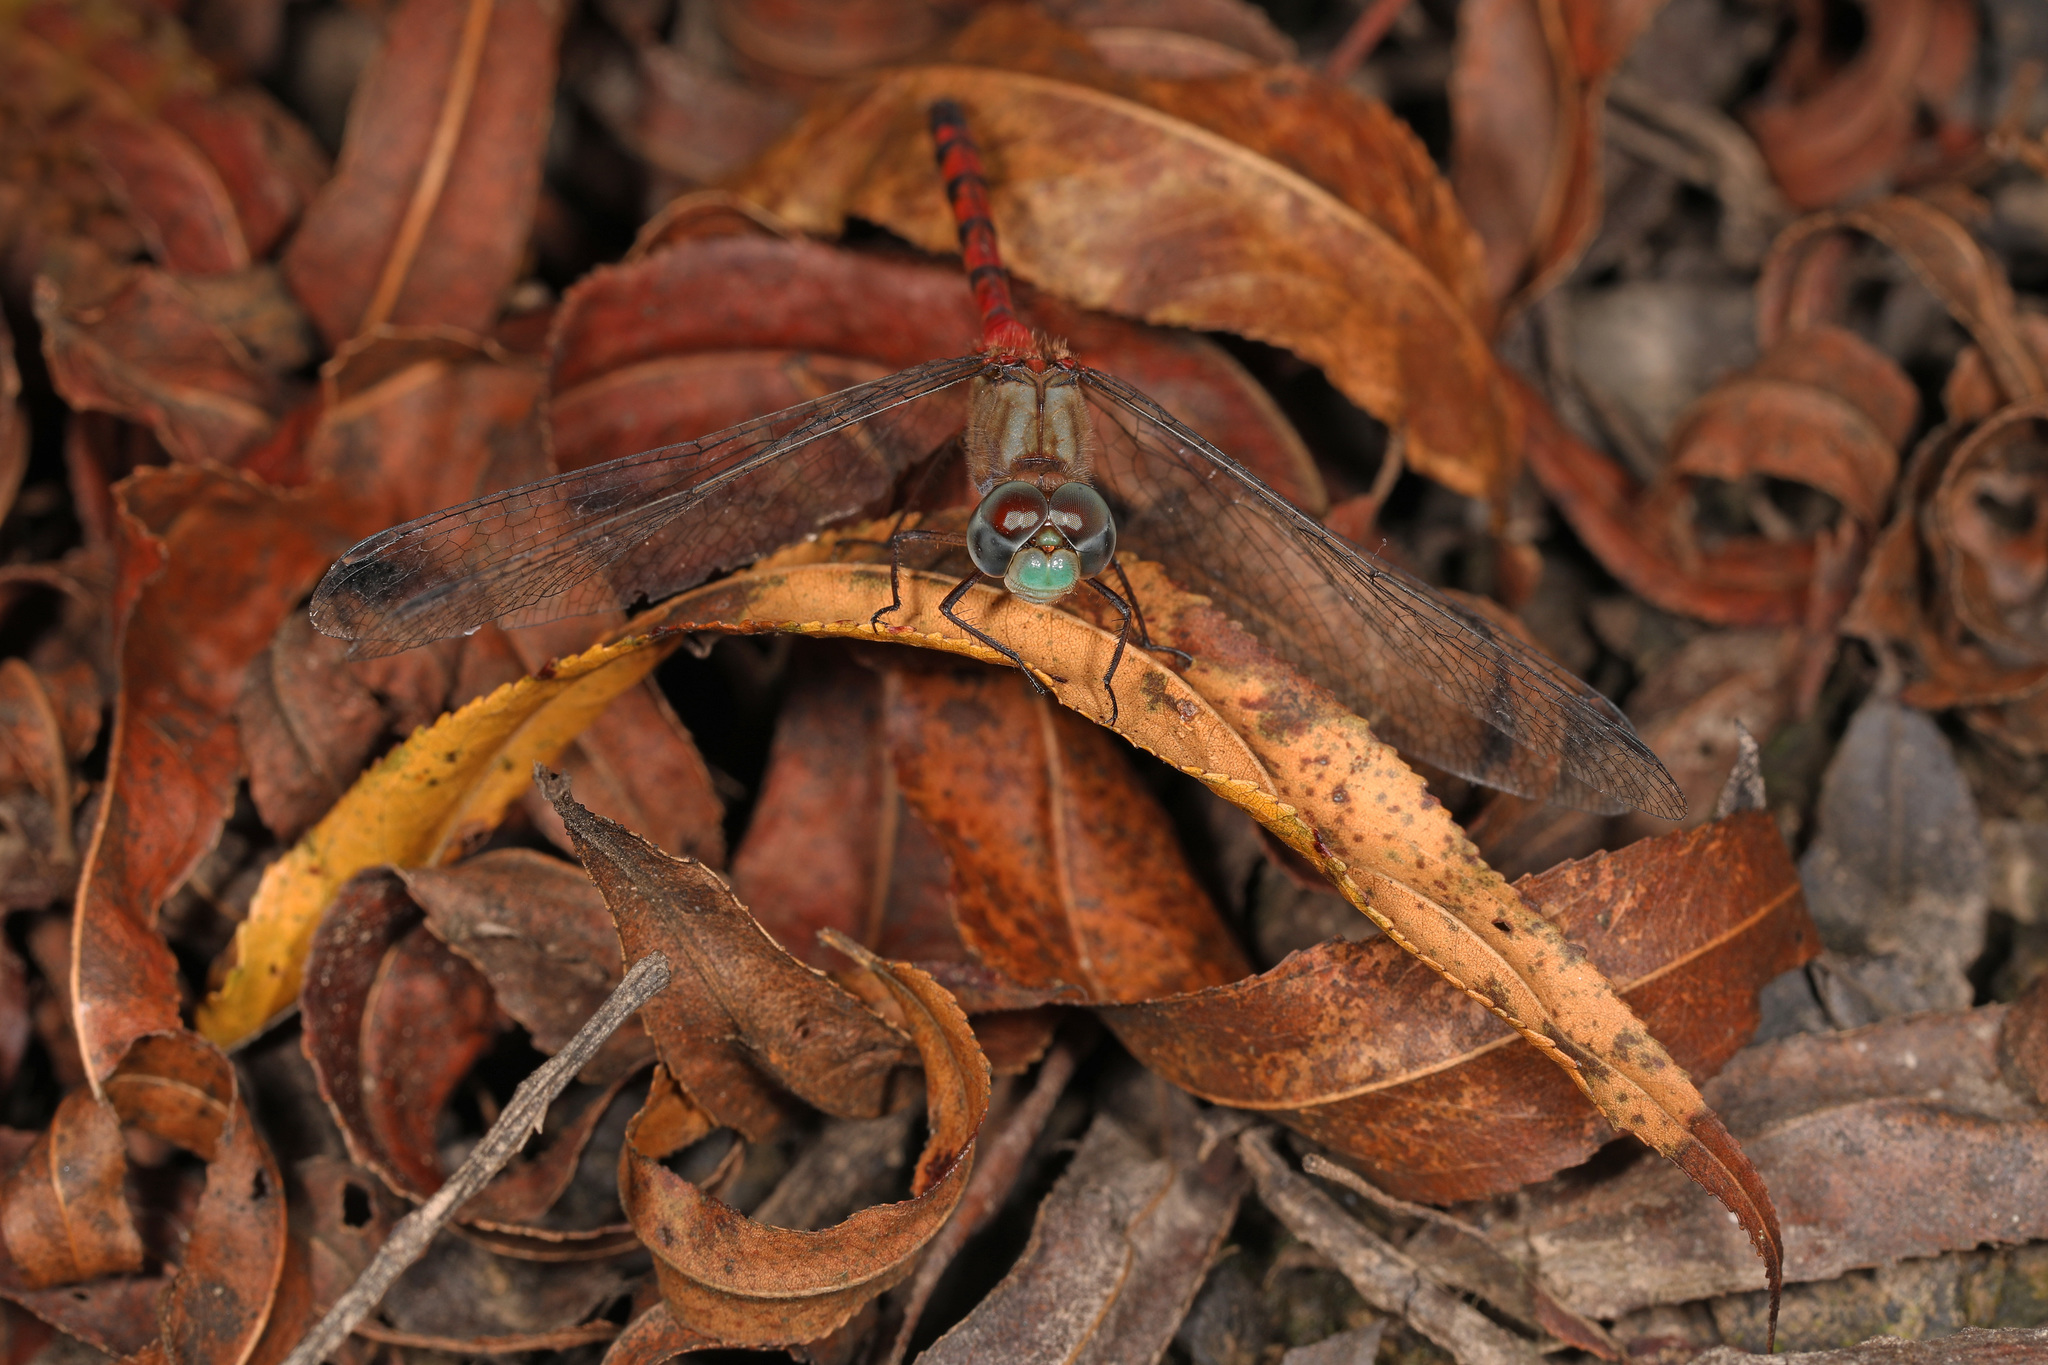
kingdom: Animalia
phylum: Arthropoda
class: Insecta
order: Odonata
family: Libellulidae
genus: Sympetrum
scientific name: Sympetrum ambiguum
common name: Blue-faced meadowhawk
